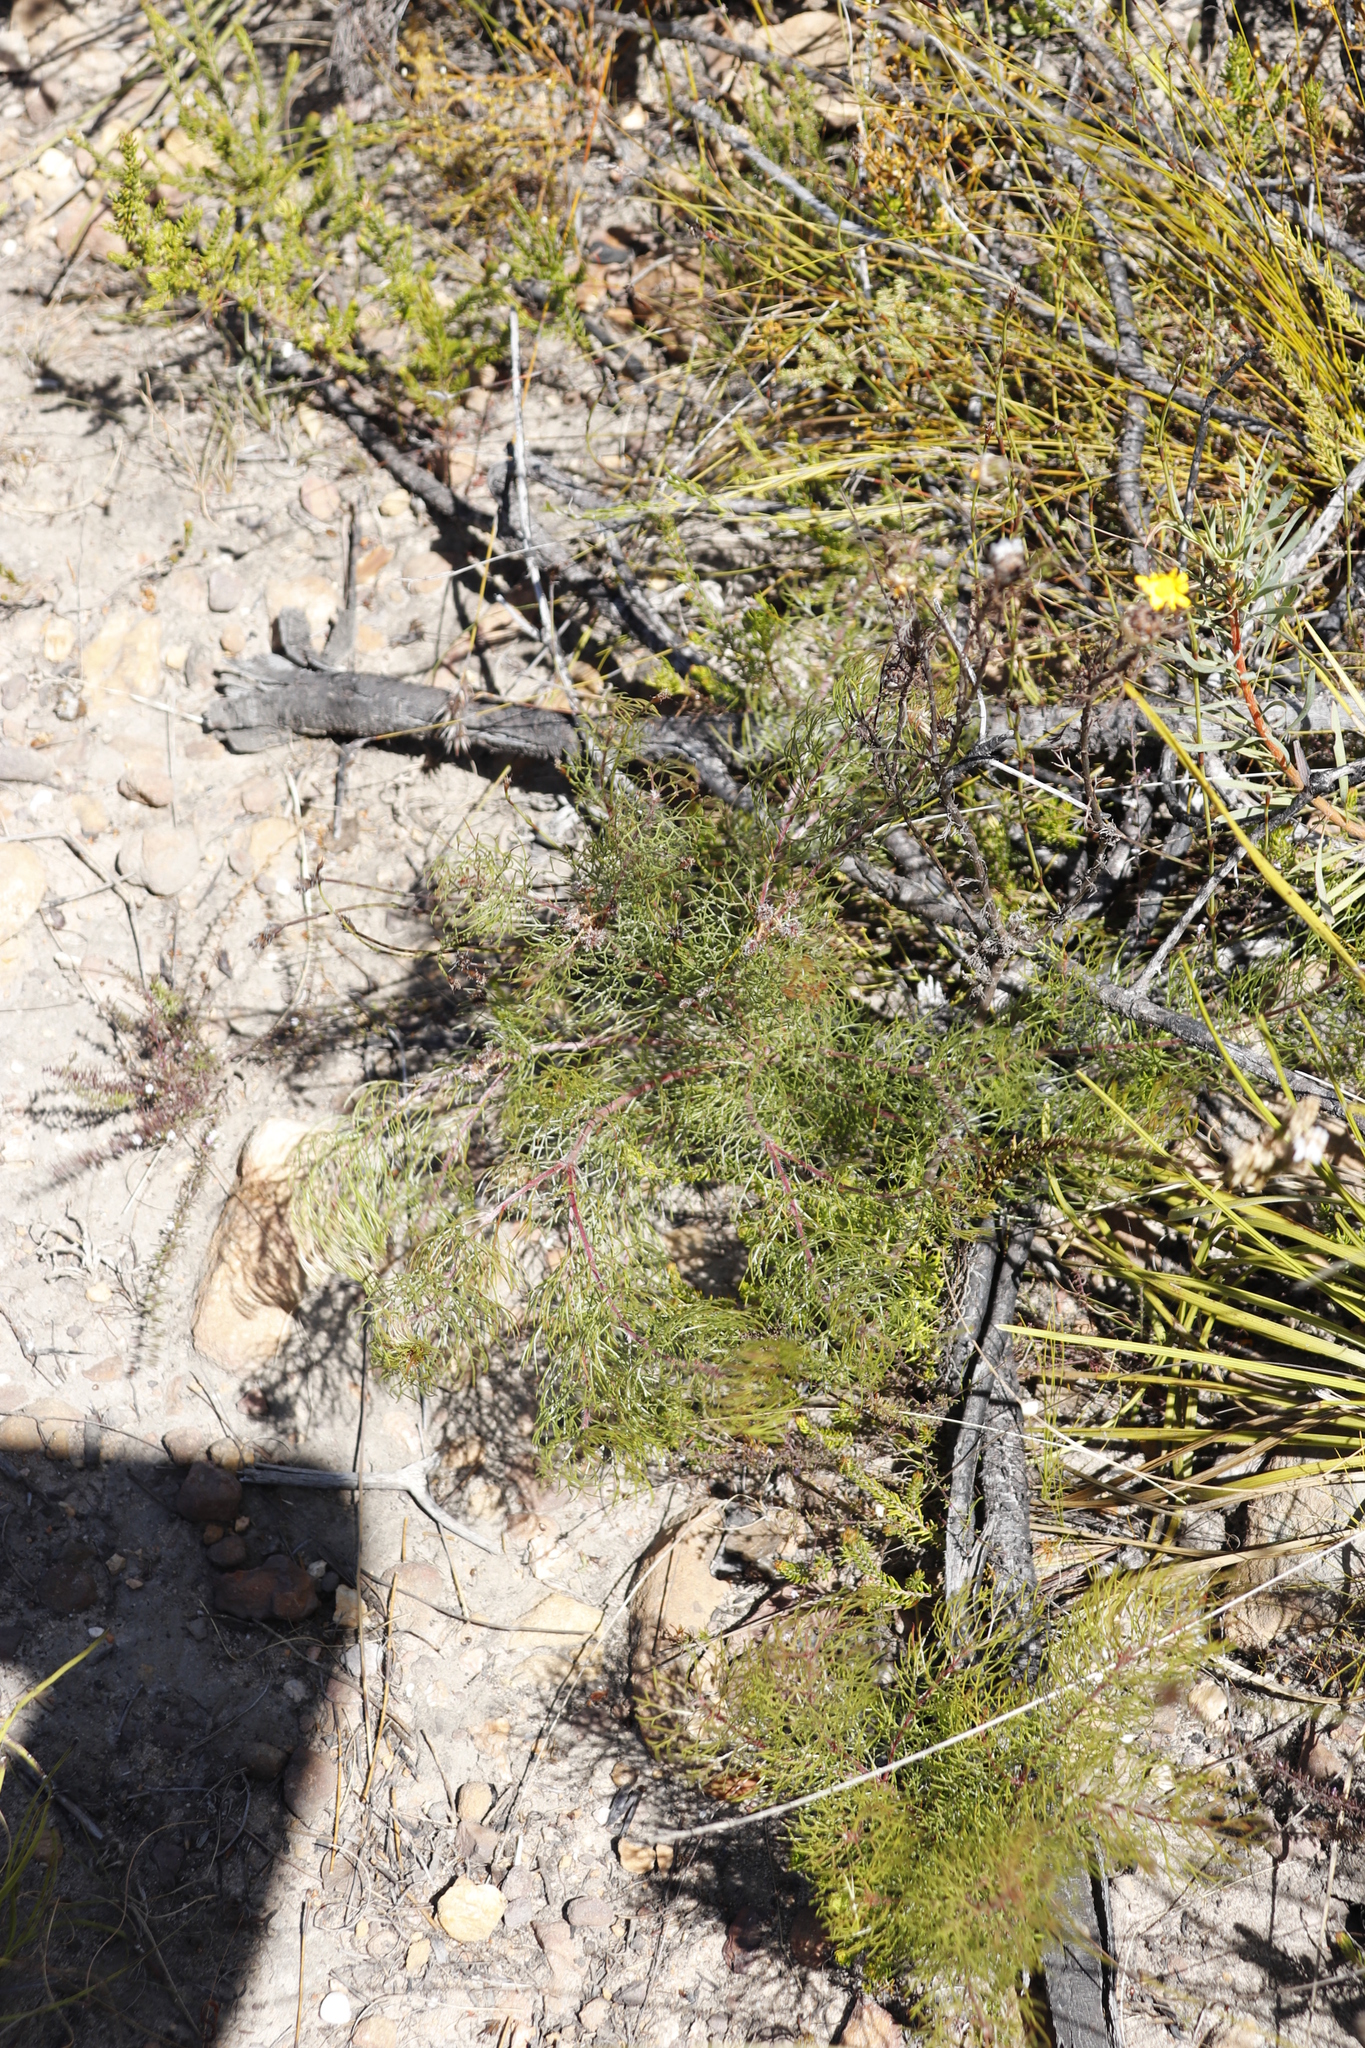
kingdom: Plantae
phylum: Tracheophyta
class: Magnoliopsida
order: Proteales
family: Proteaceae
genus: Serruria
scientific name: Serruria fasciflora
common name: Common pin spiderhead
